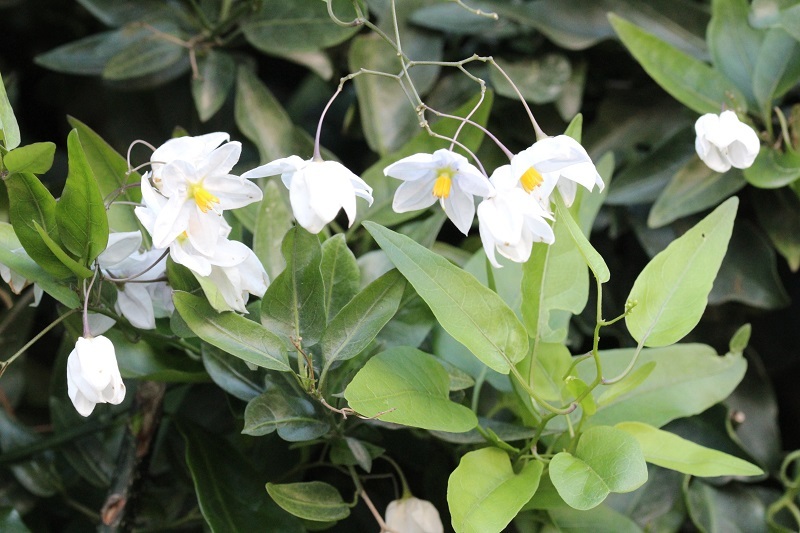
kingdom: Plantae
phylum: Tracheophyta
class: Magnoliopsida
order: Solanales
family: Solanaceae
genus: Solanum
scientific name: Solanum laxum
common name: Nightshade
